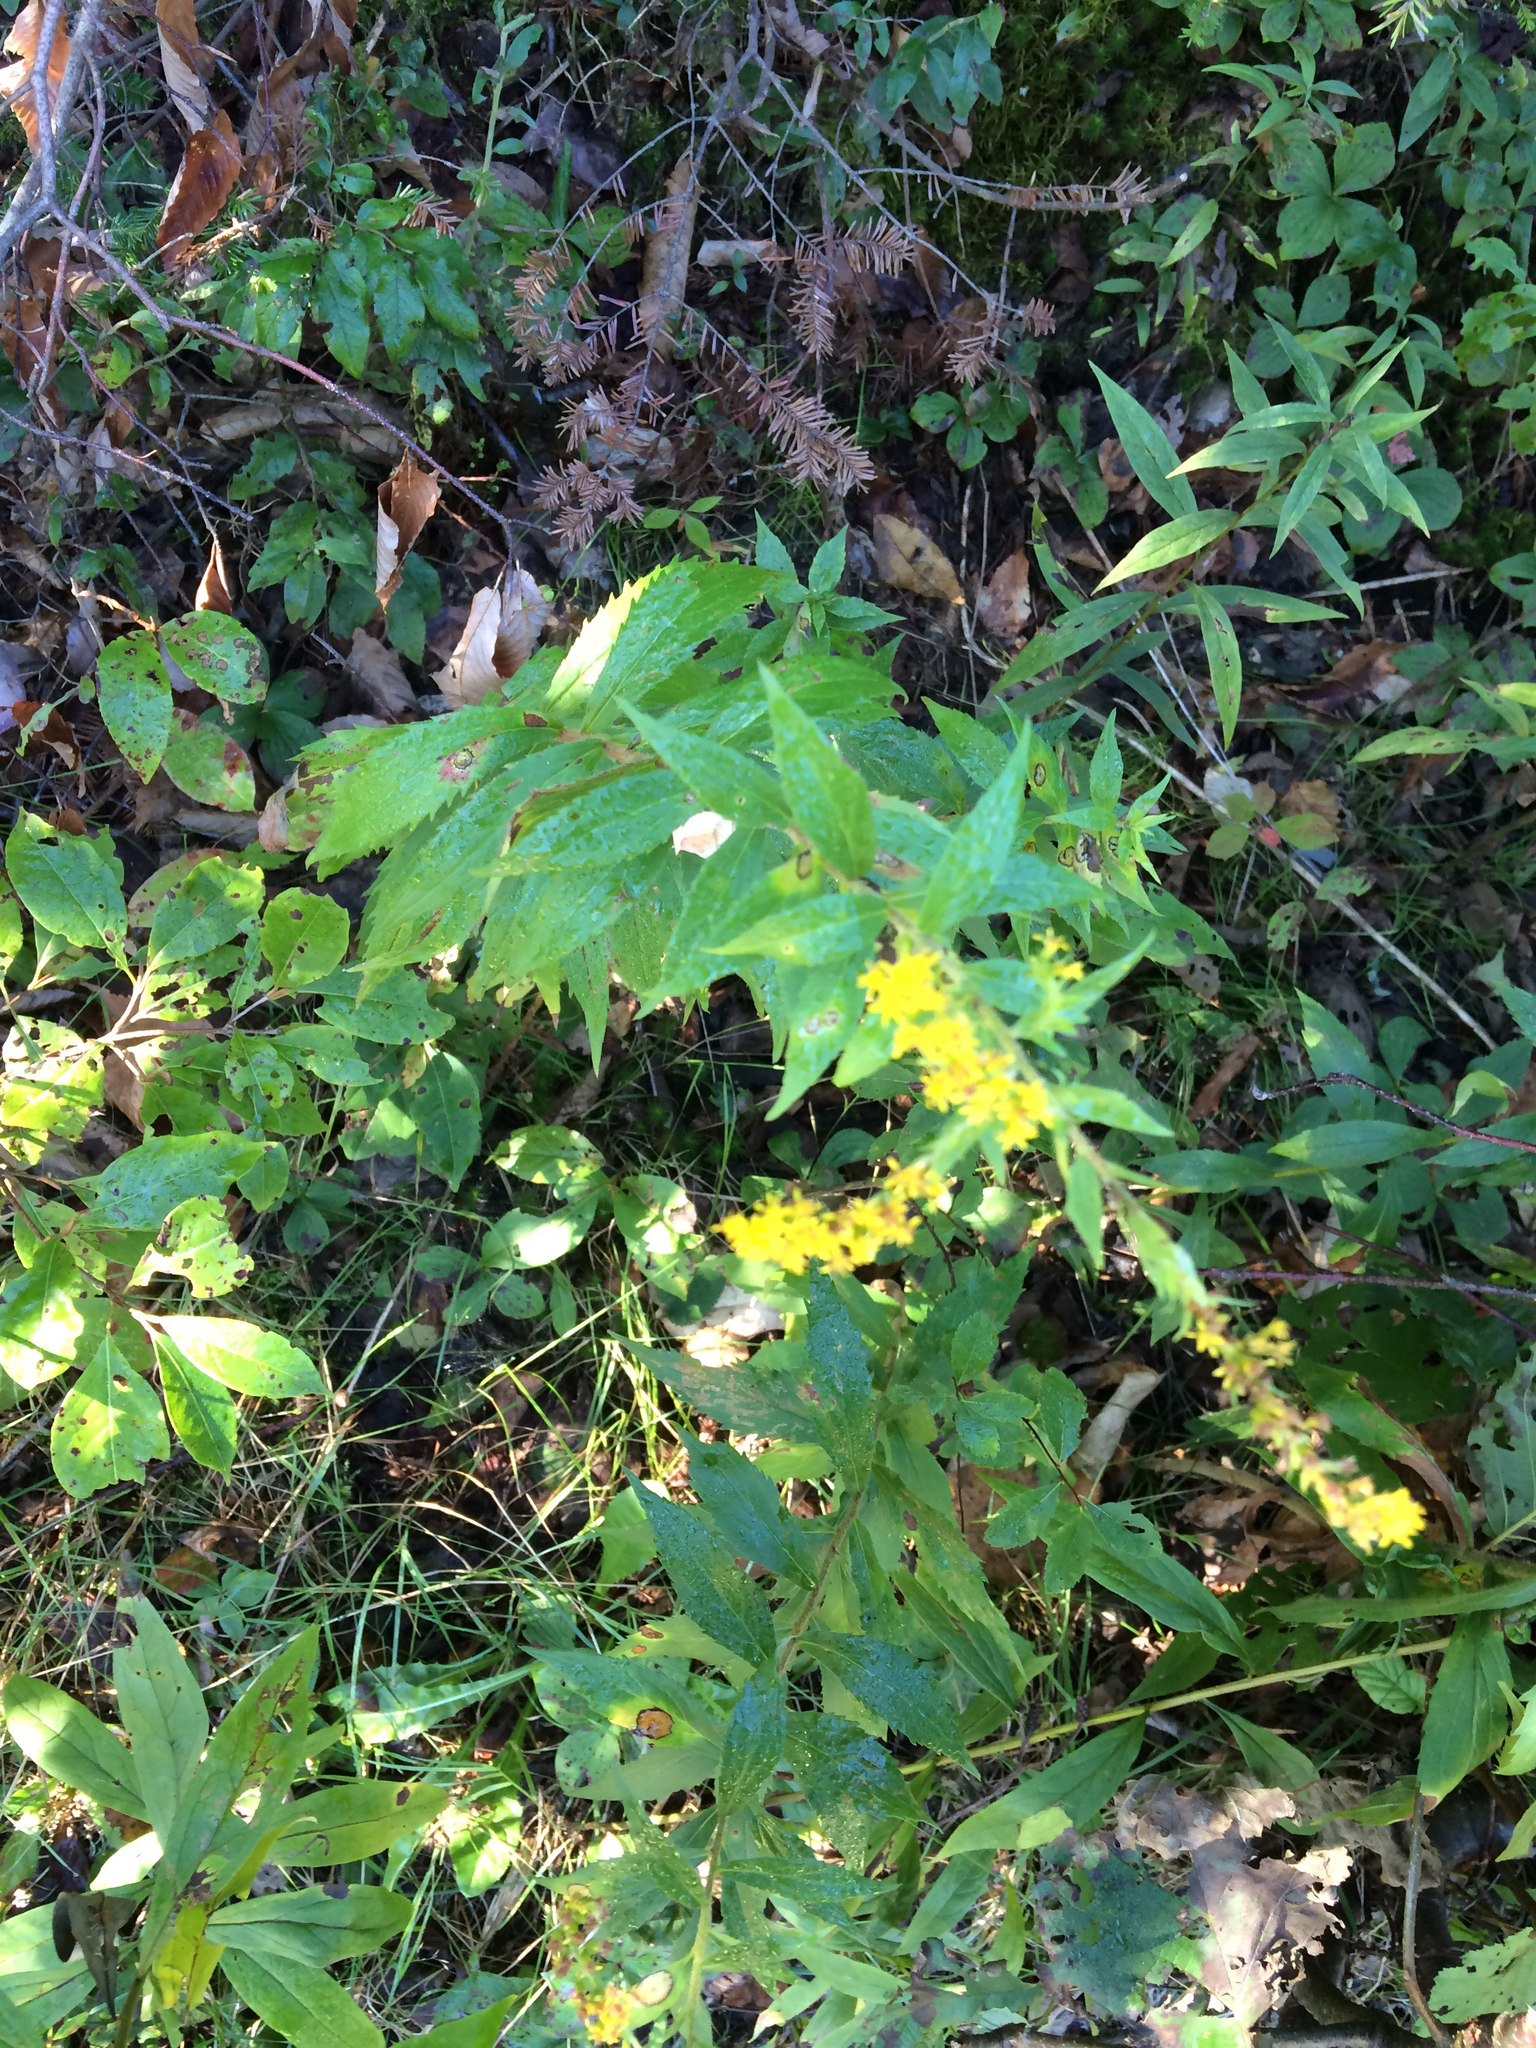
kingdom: Plantae
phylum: Tracheophyta
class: Magnoliopsida
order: Asterales
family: Asteraceae
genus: Solidago
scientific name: Solidago rugosa
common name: Rough-stemmed goldenrod
